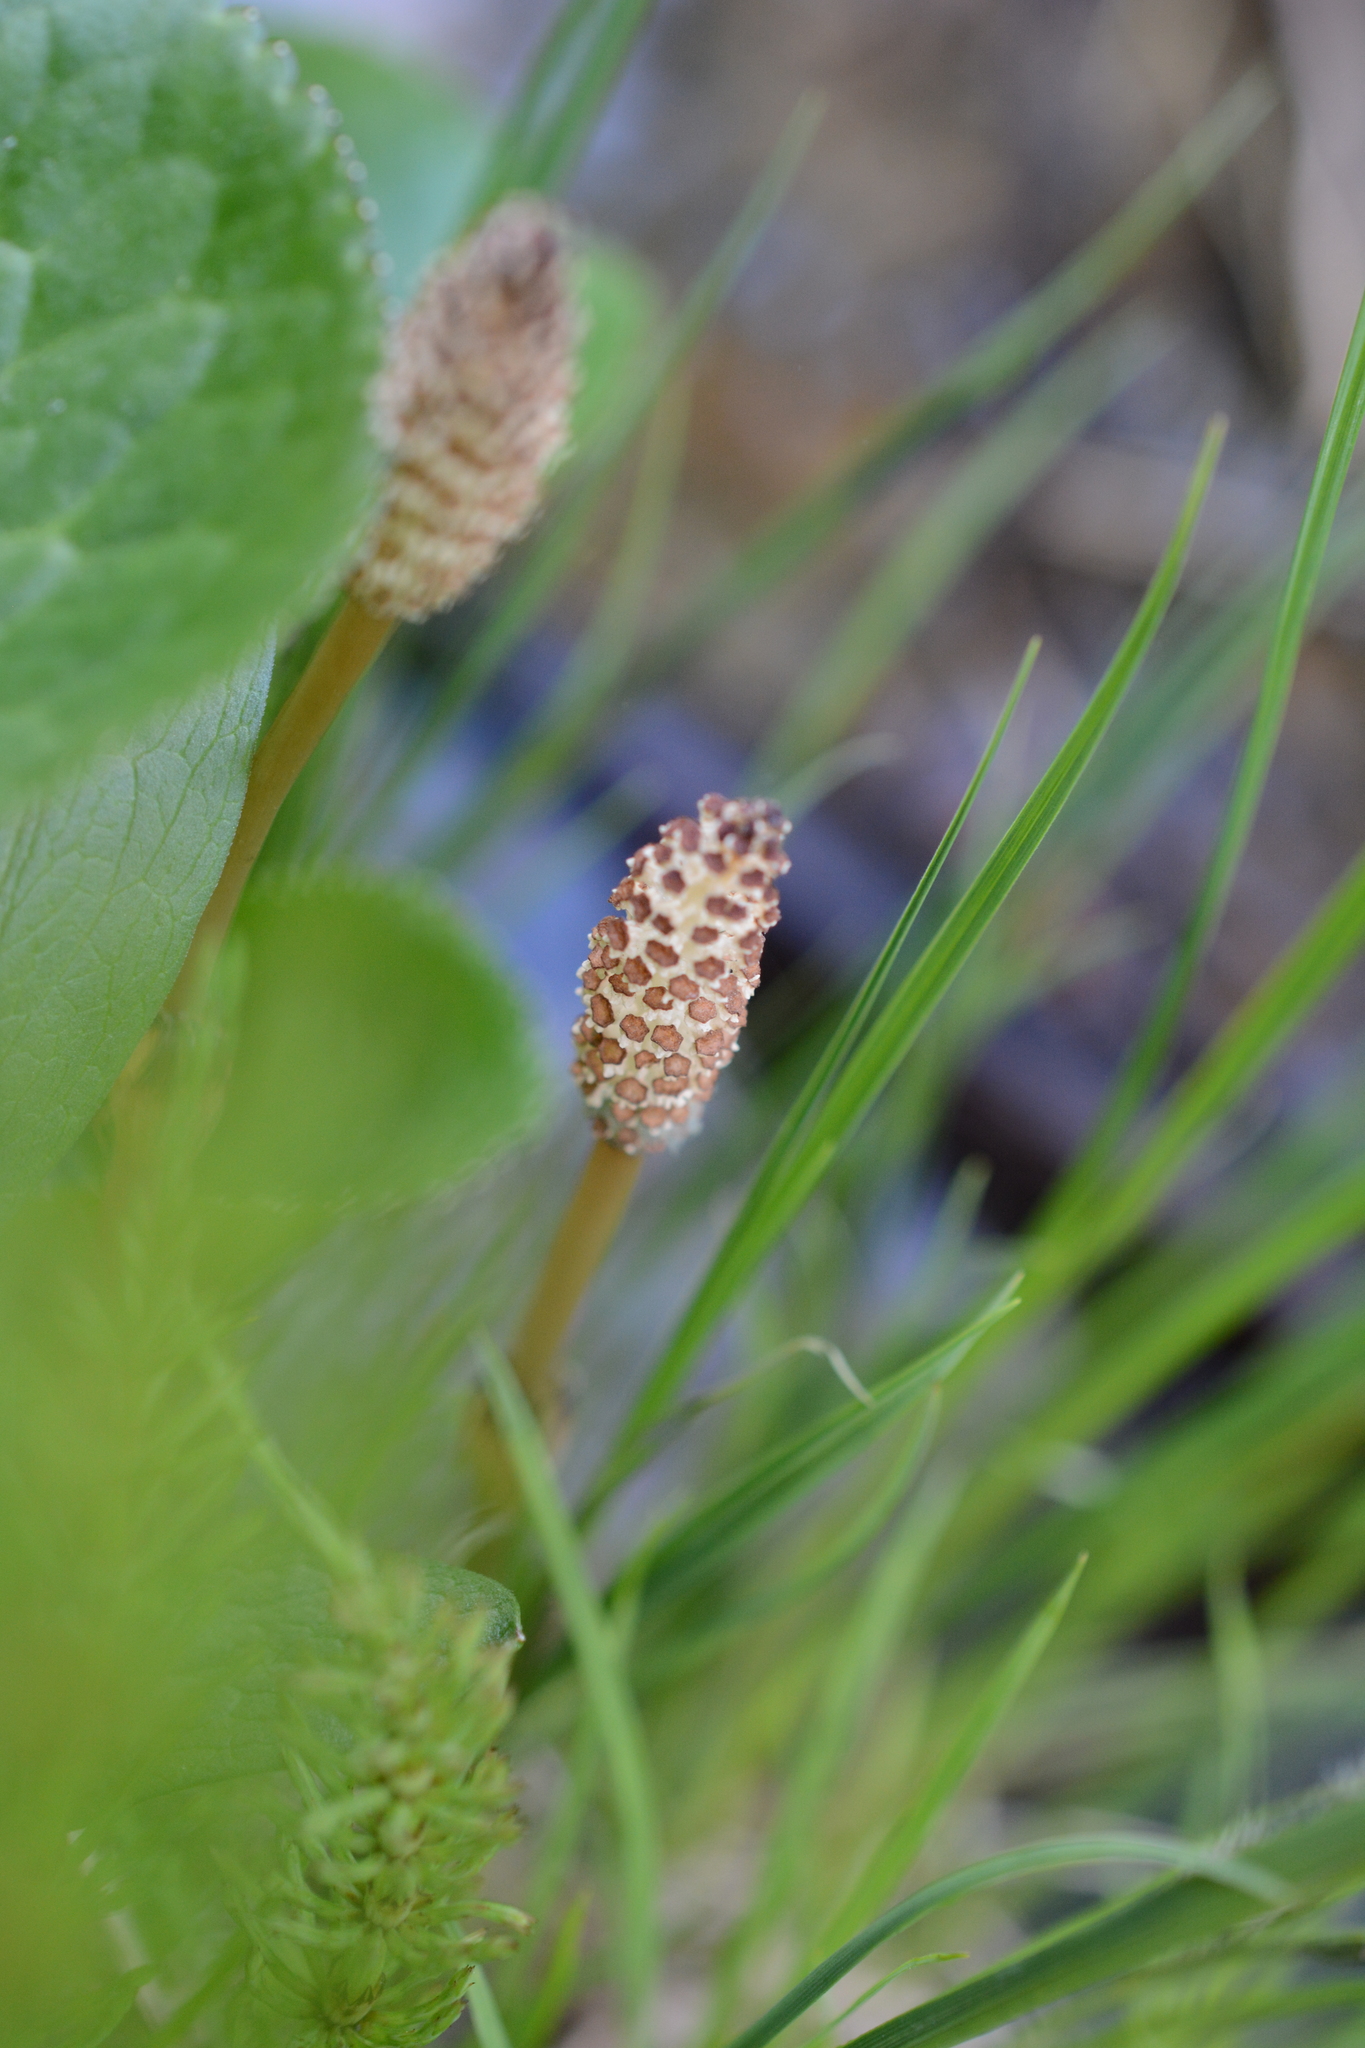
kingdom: Plantae
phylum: Tracheophyta
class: Polypodiopsida
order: Equisetales
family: Equisetaceae
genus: Equisetum
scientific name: Equisetum arvense
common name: Field horsetail
